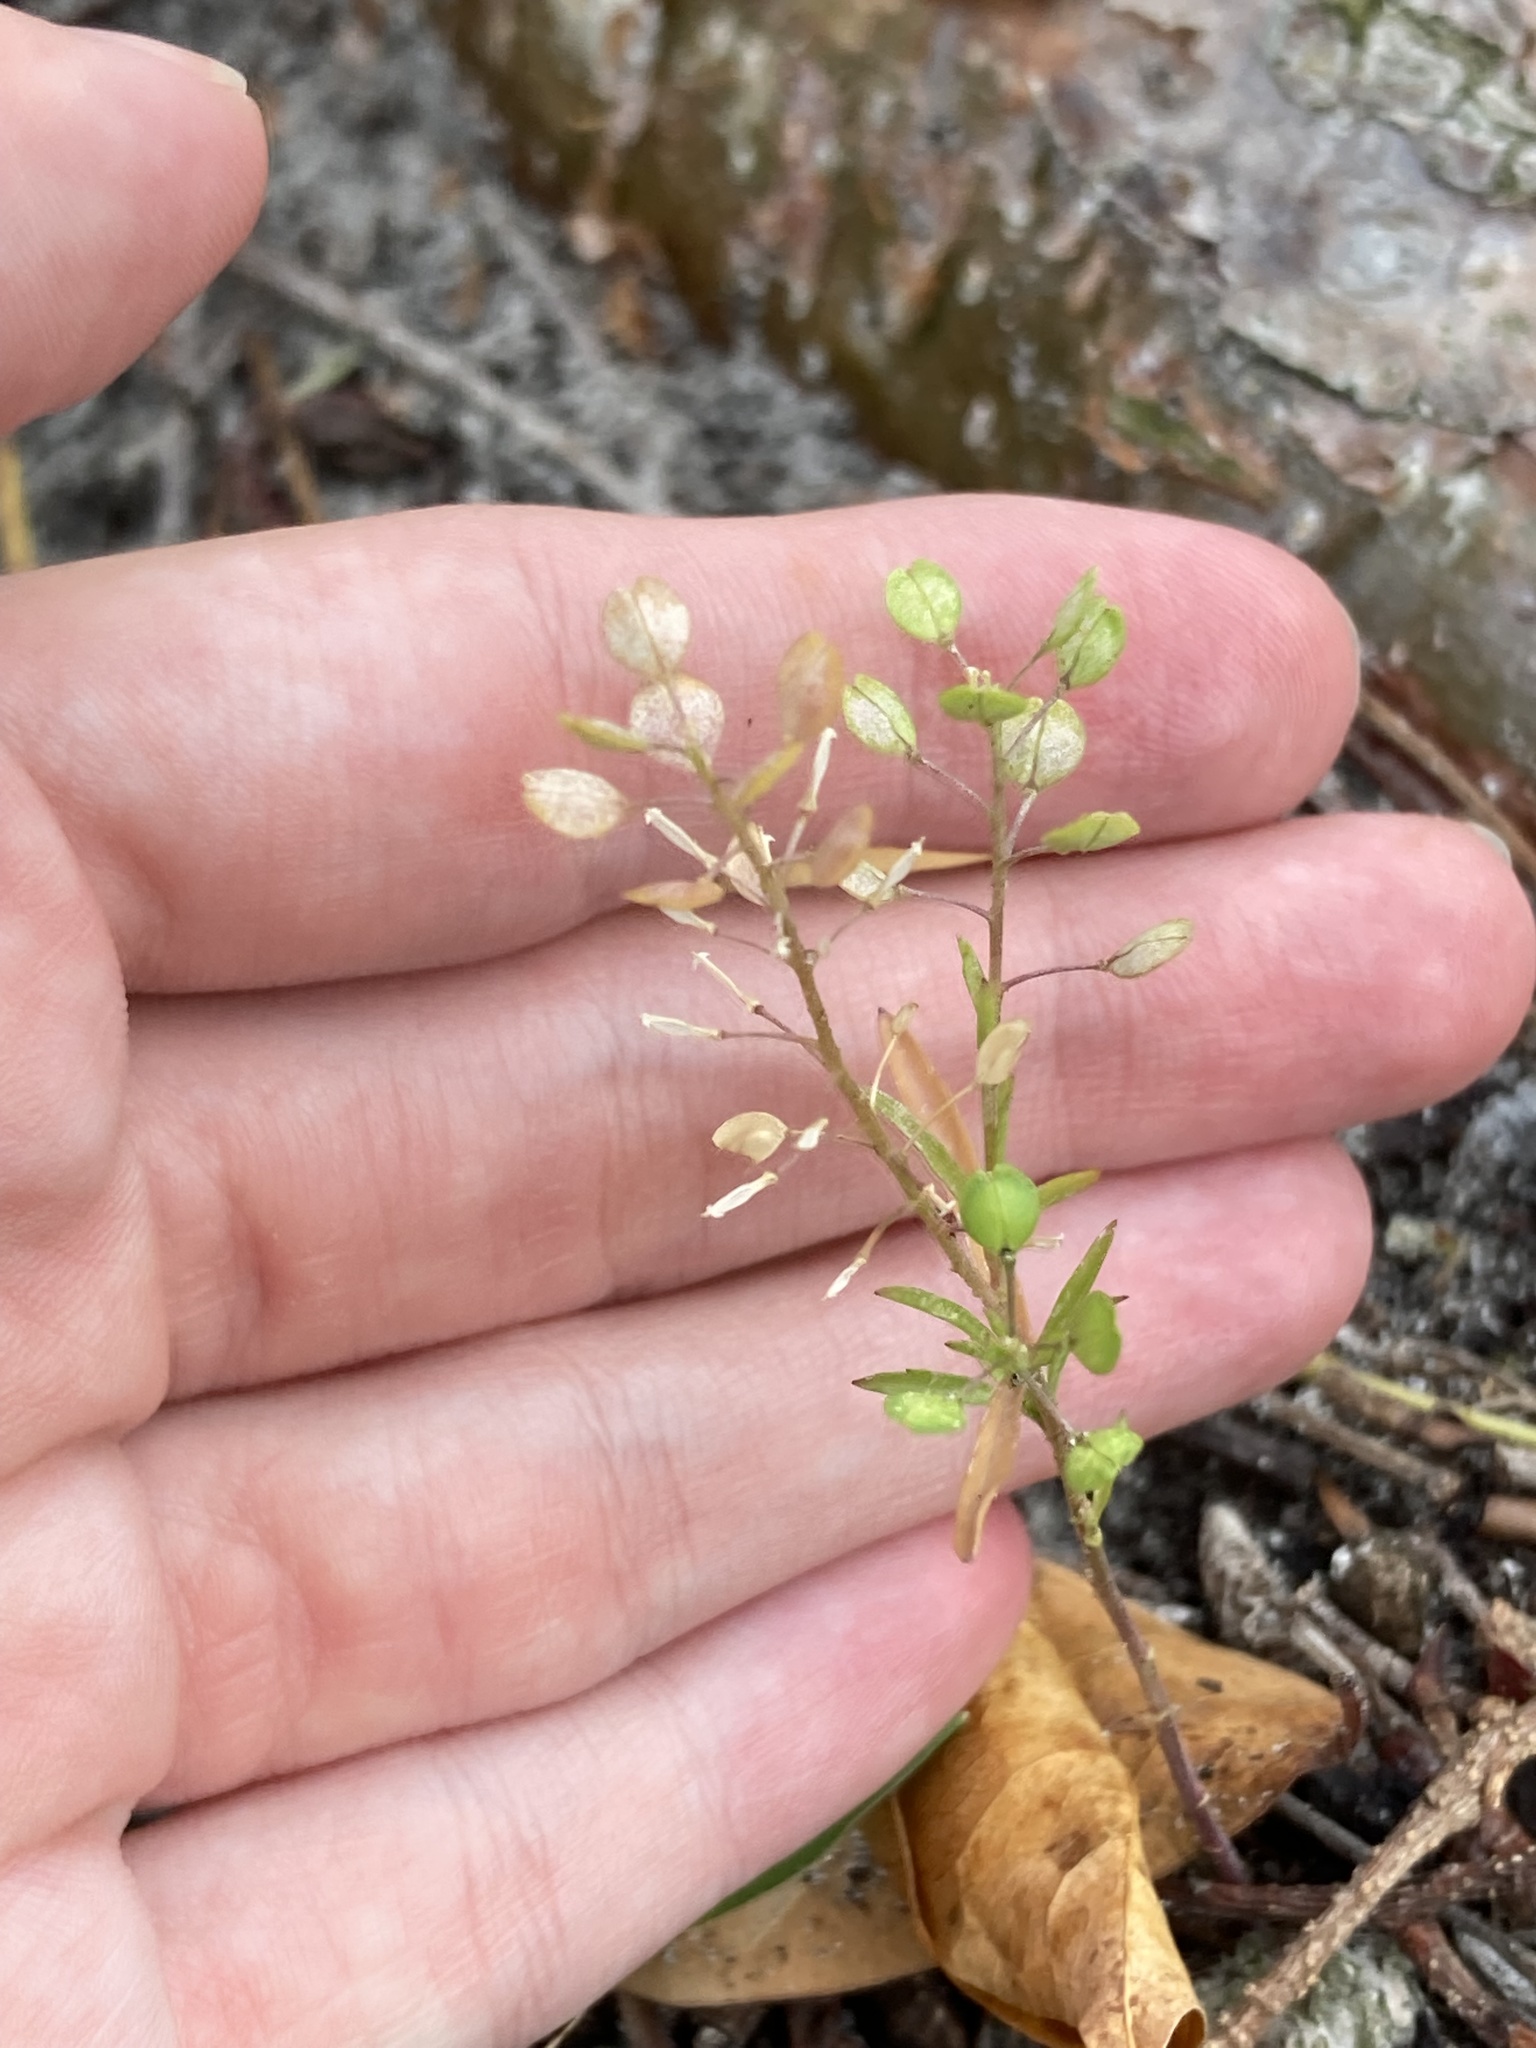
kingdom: Plantae
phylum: Tracheophyta
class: Magnoliopsida
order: Brassicales
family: Brassicaceae
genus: Lepidium
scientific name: Lepidium virginicum
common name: Least pepperwort
